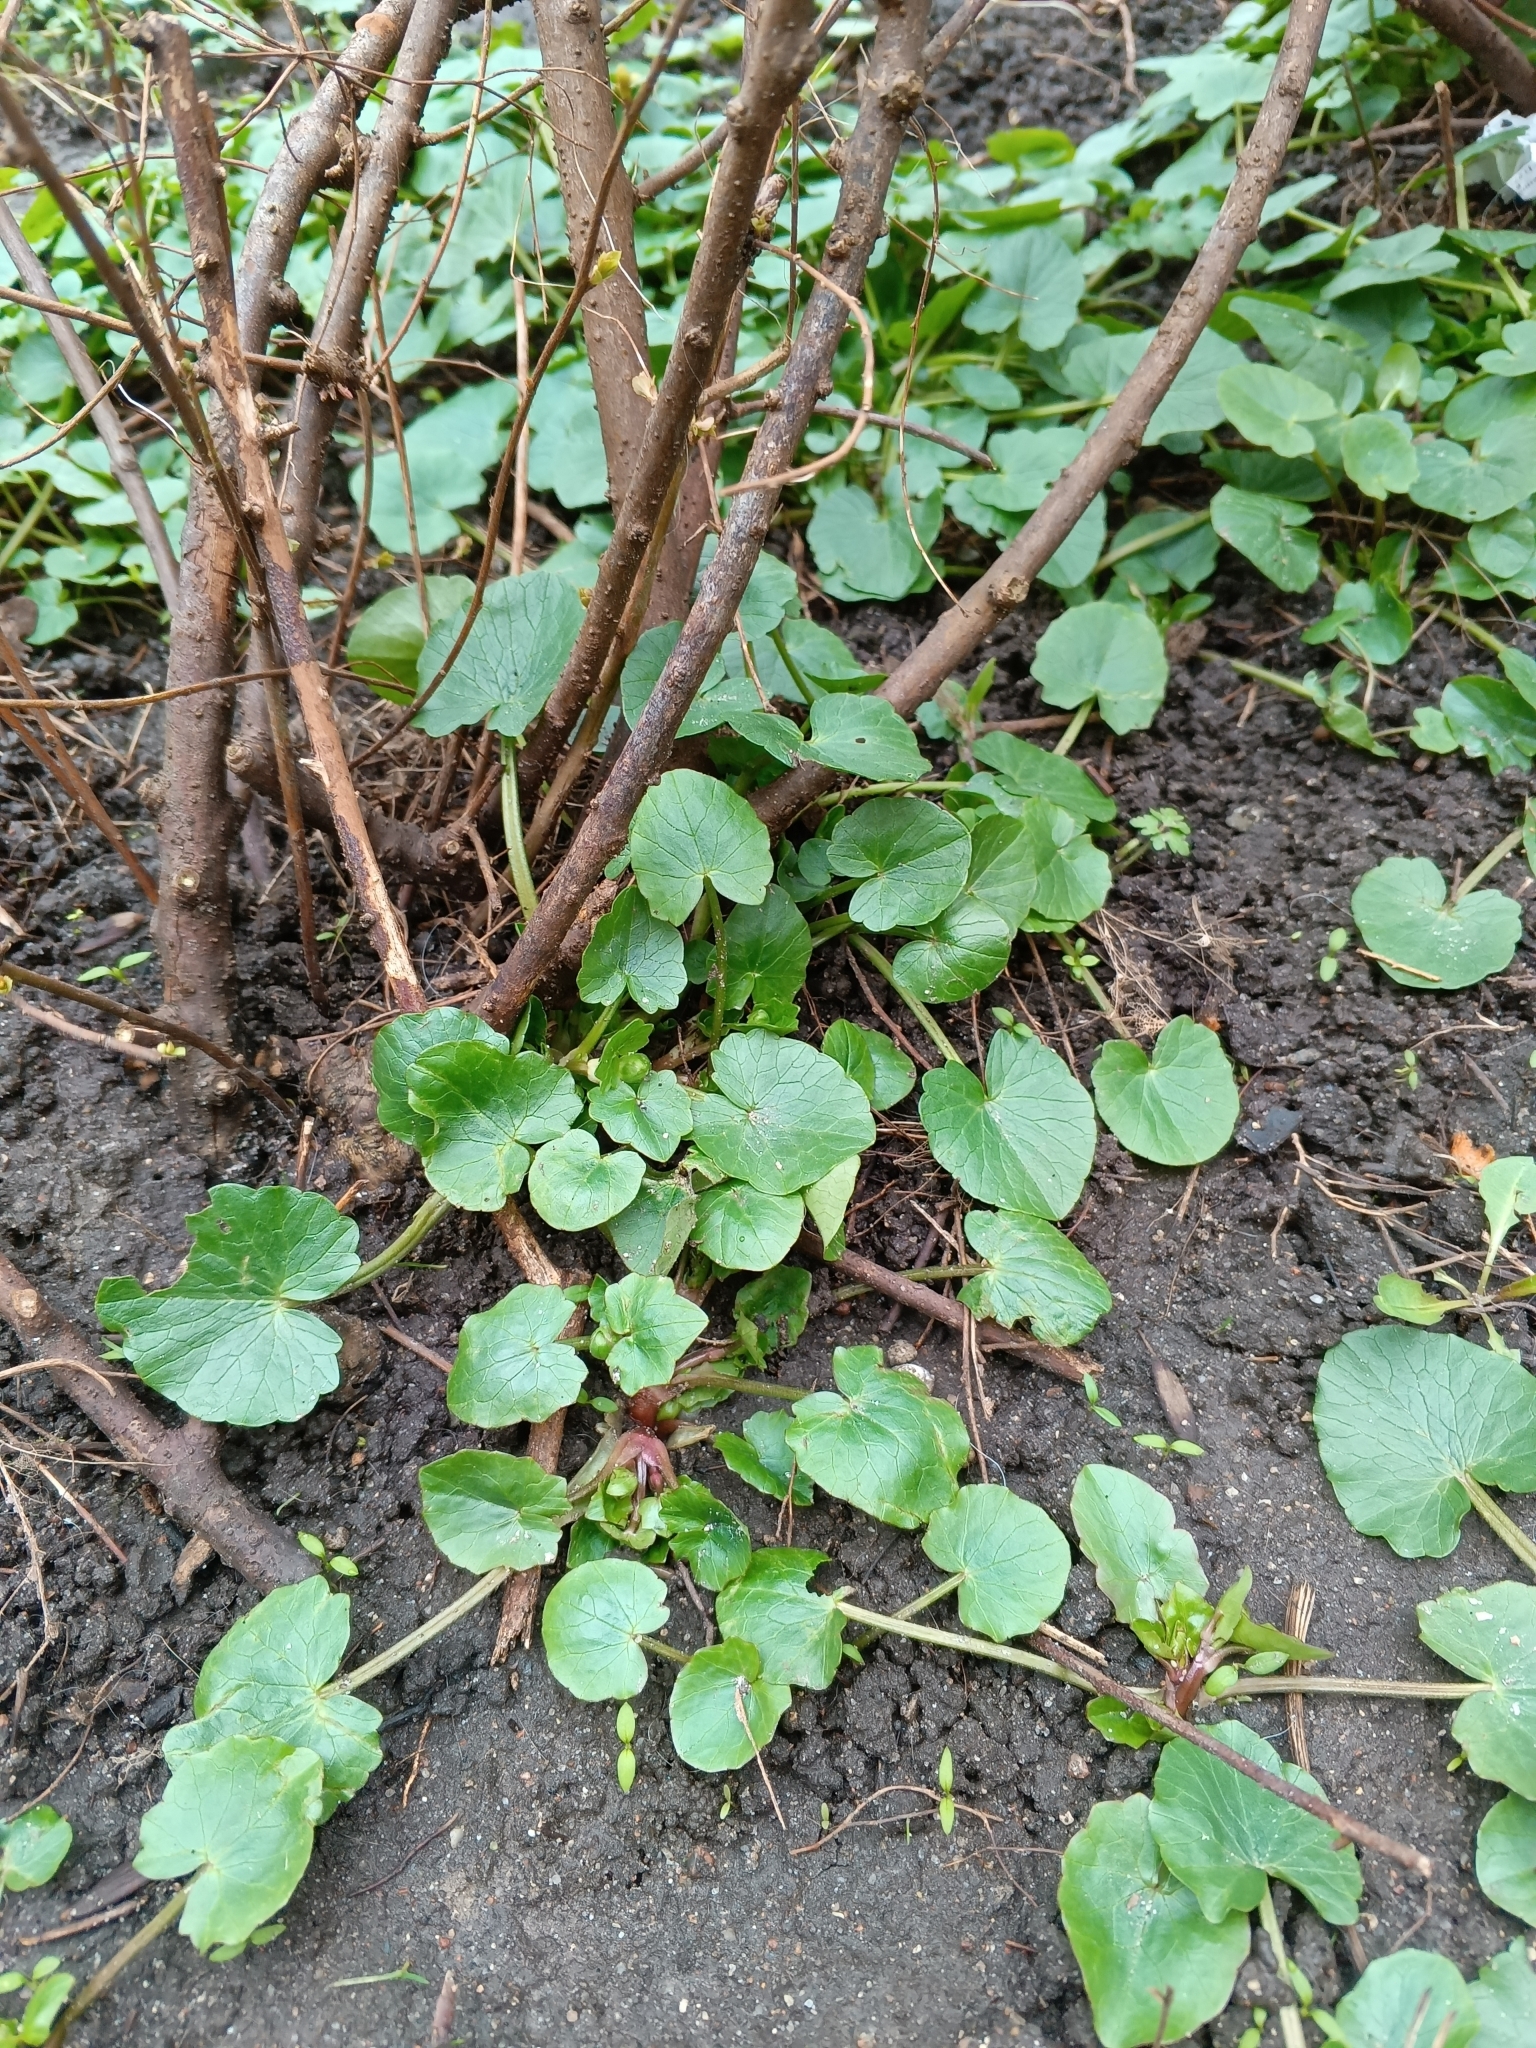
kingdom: Plantae
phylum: Tracheophyta
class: Magnoliopsida
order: Ranunculales
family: Ranunculaceae
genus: Ficaria
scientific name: Ficaria verna
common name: Lesser celandine
